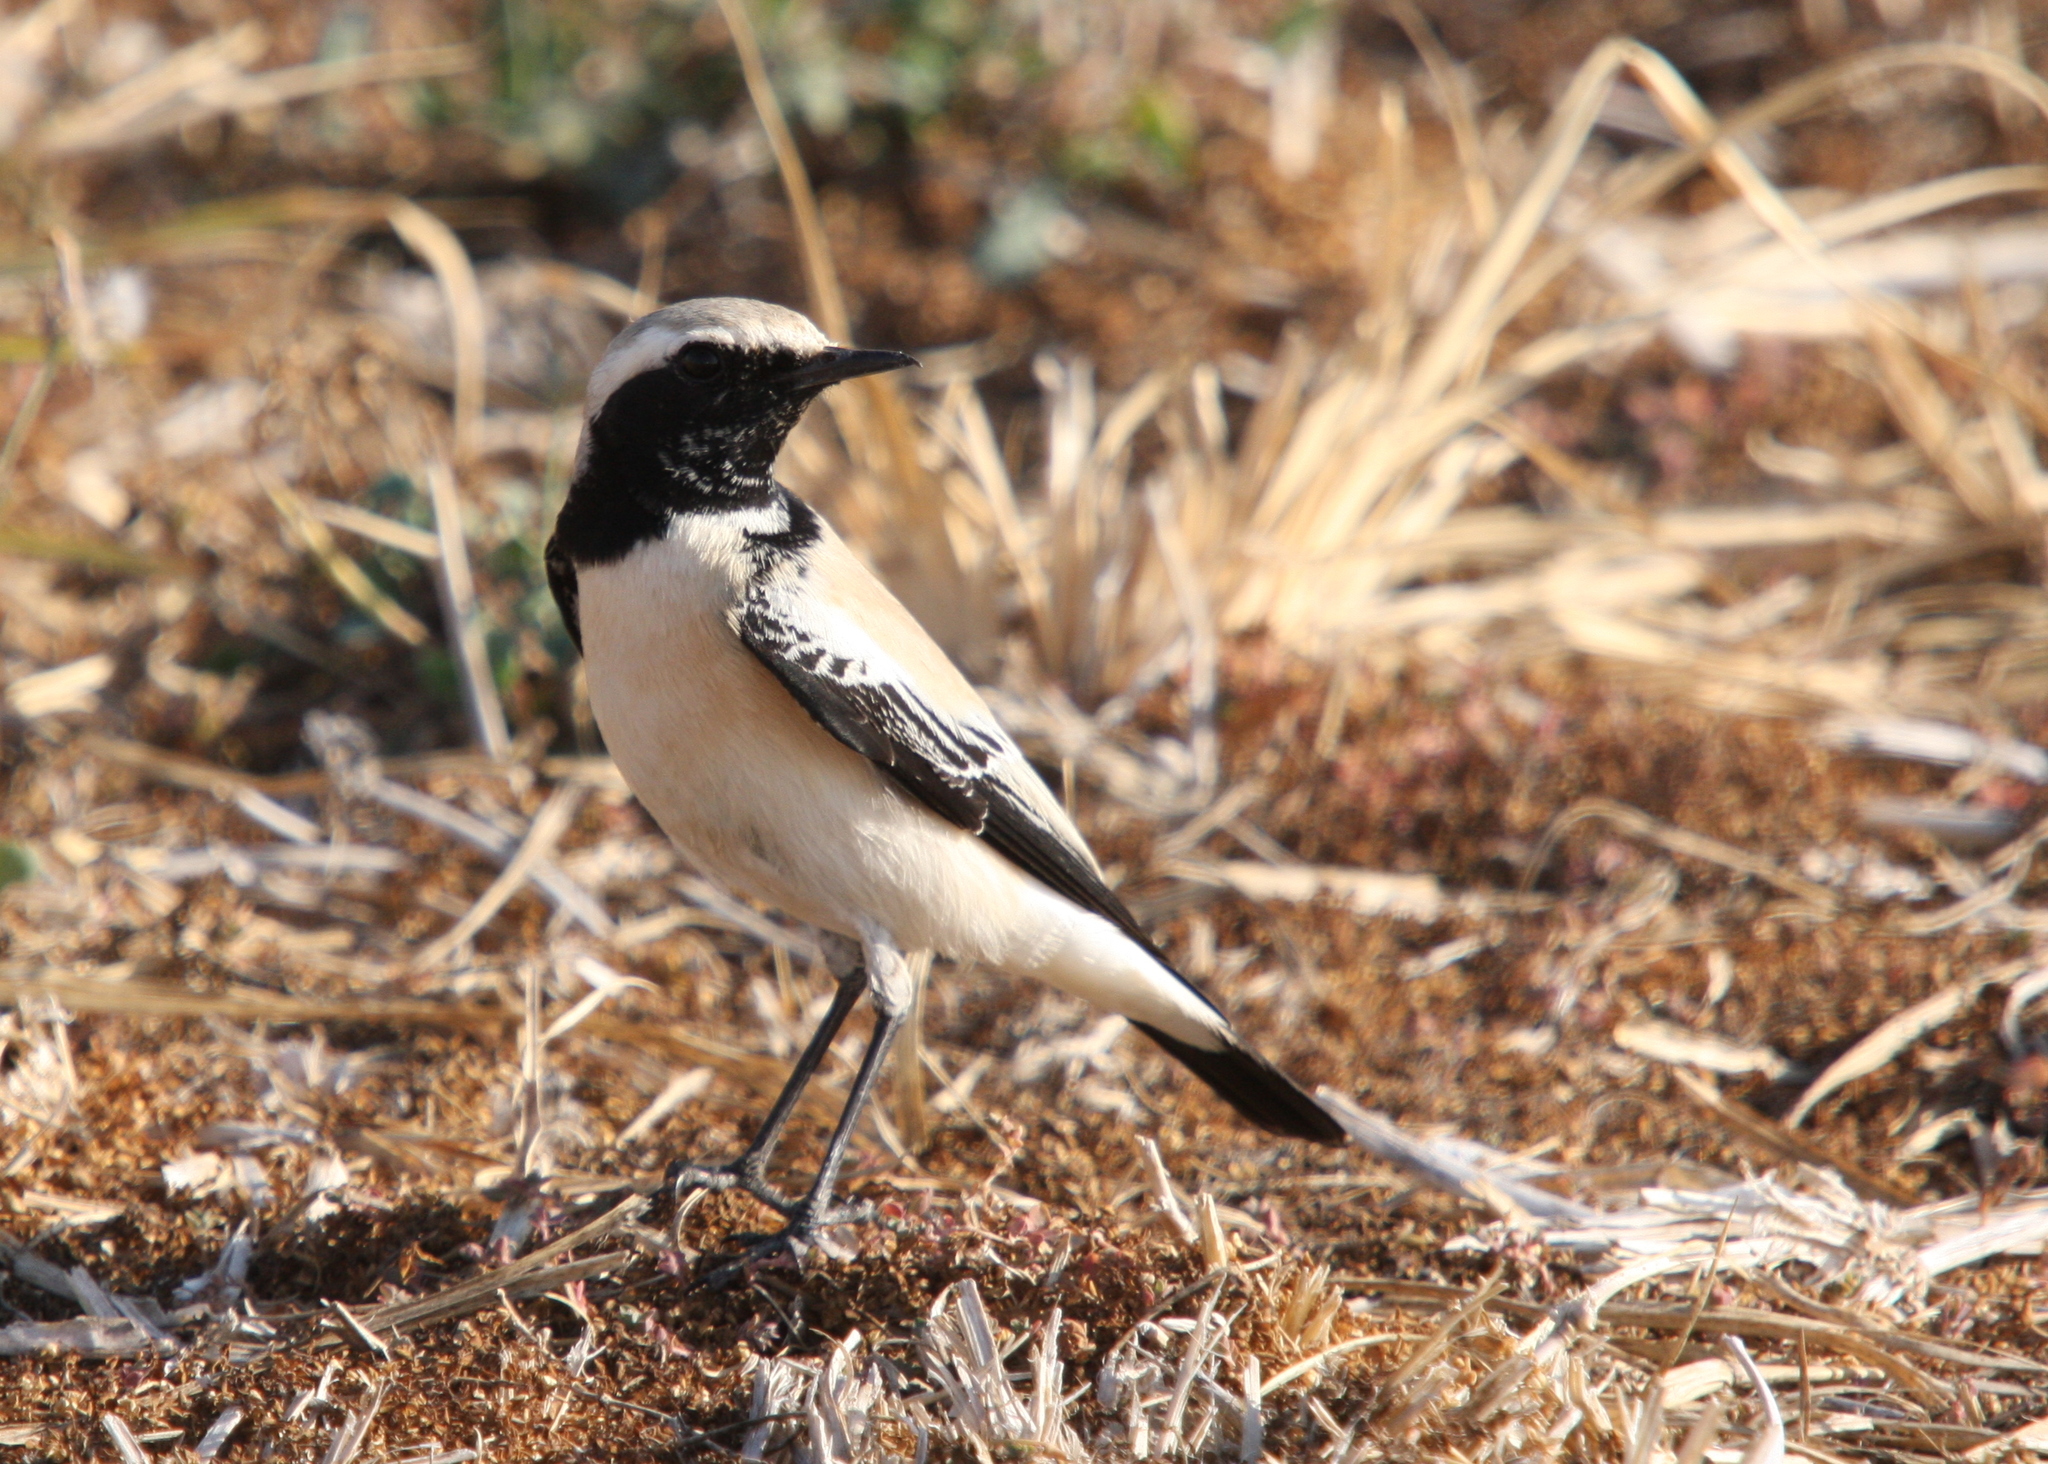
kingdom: Animalia
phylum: Chordata
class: Aves
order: Passeriformes
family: Muscicapidae
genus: Oenanthe
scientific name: Oenanthe deserti
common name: Desert wheatear
